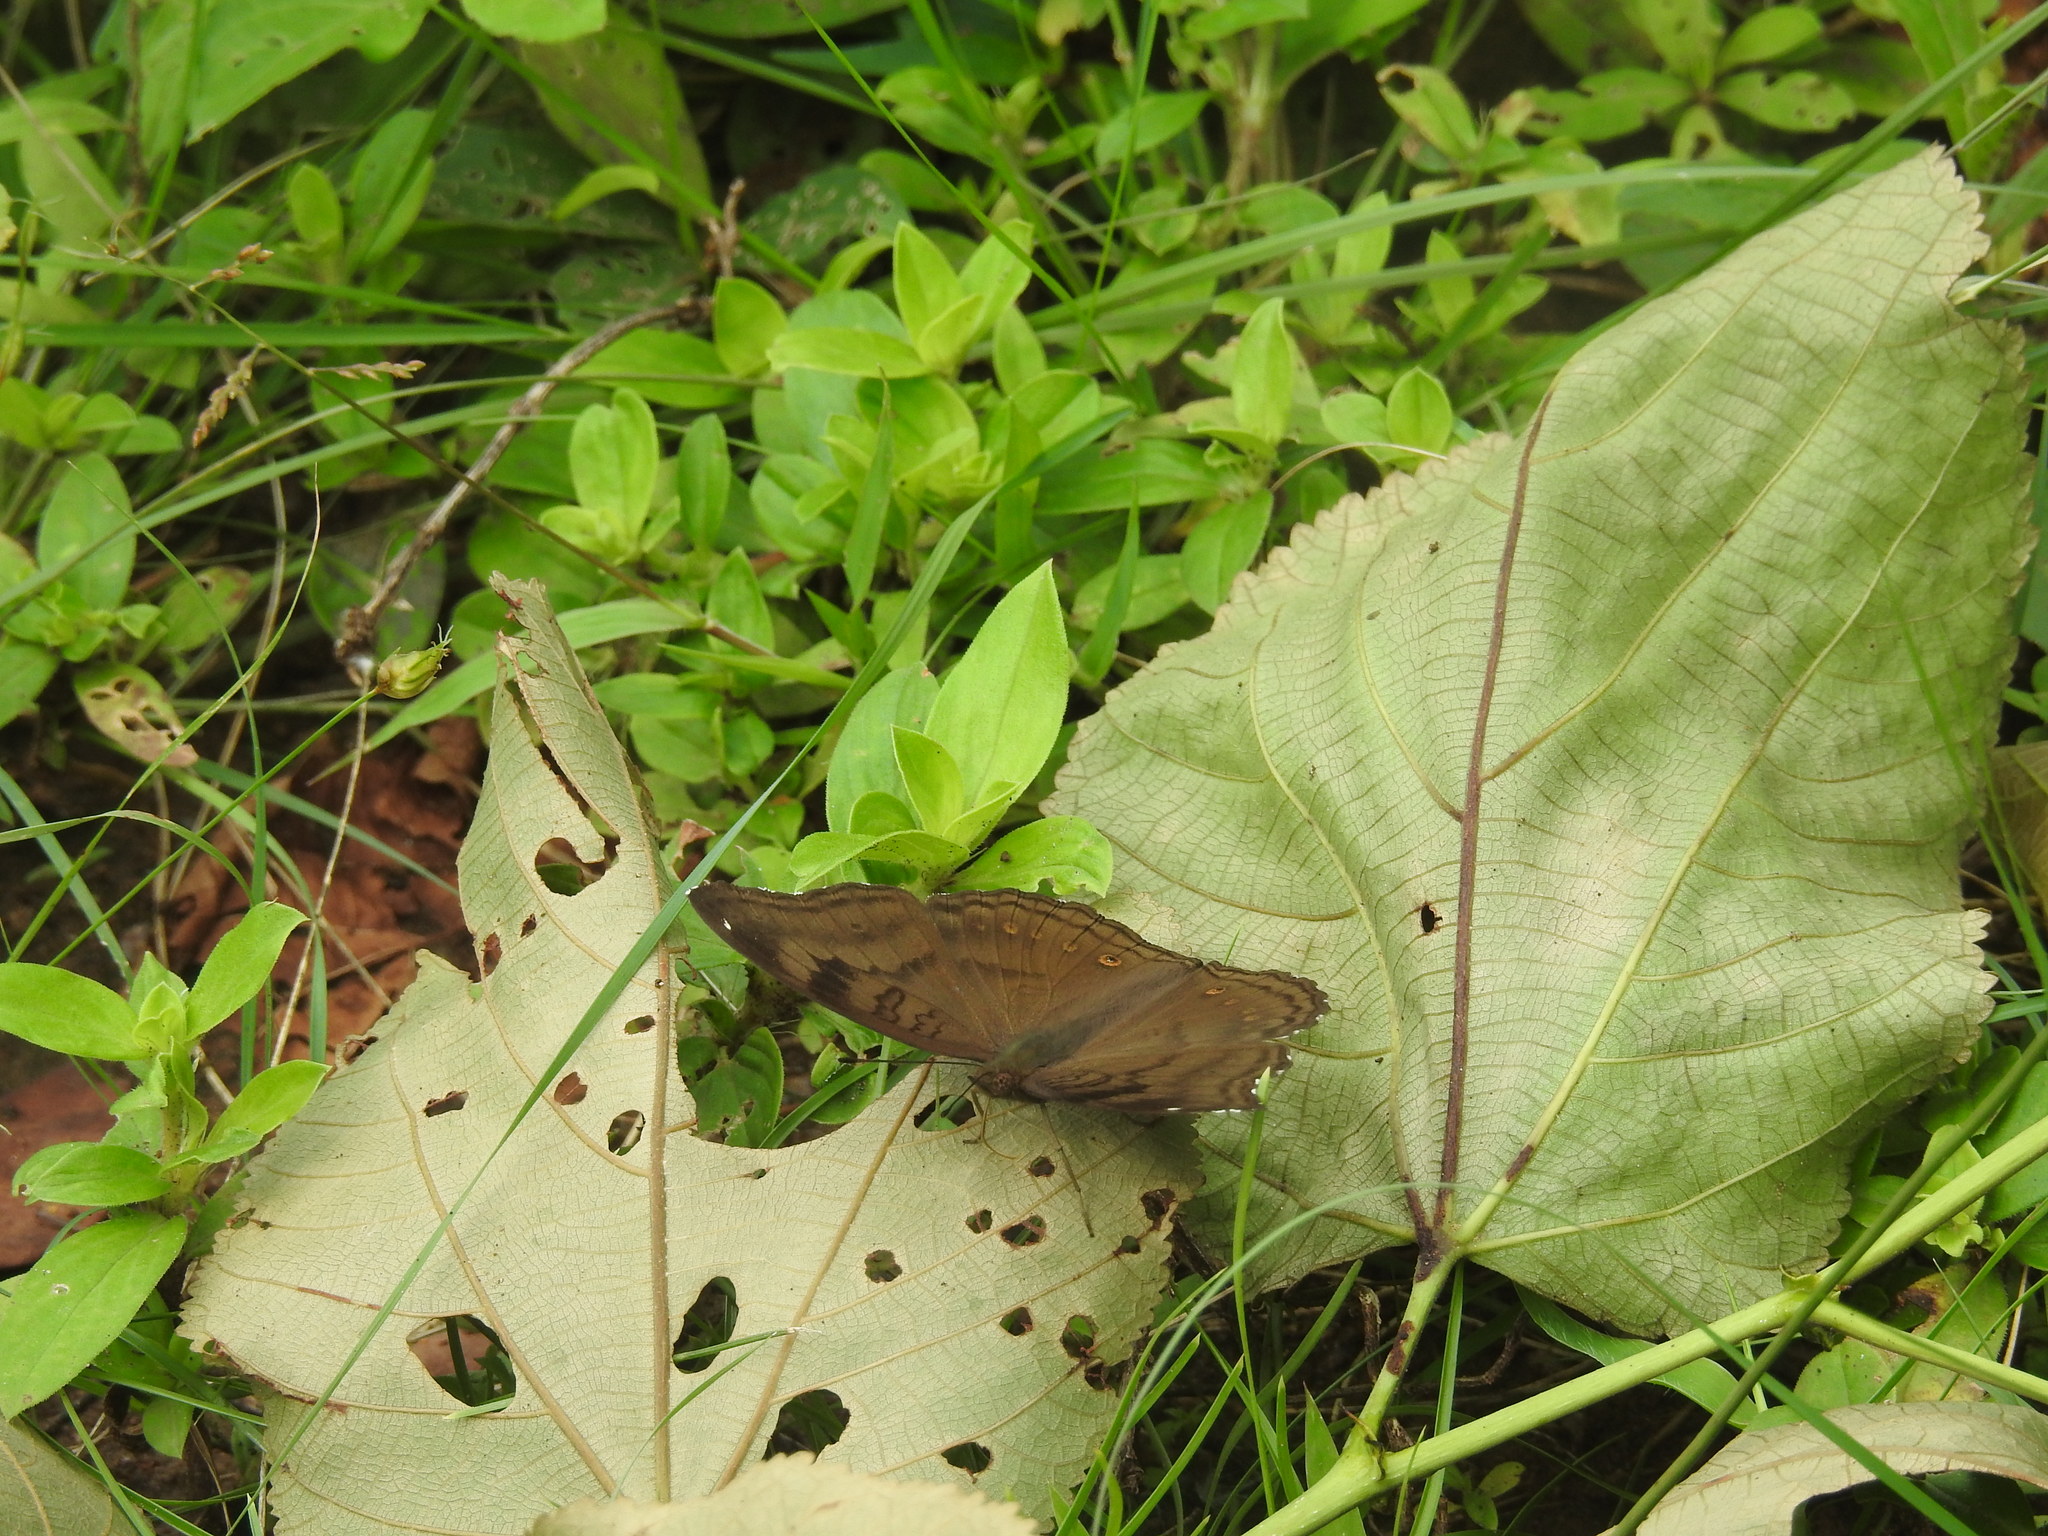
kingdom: Animalia
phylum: Arthropoda
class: Insecta
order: Lepidoptera
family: Nymphalidae
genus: Junonia
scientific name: Junonia iphita
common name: Chocolate pansy
